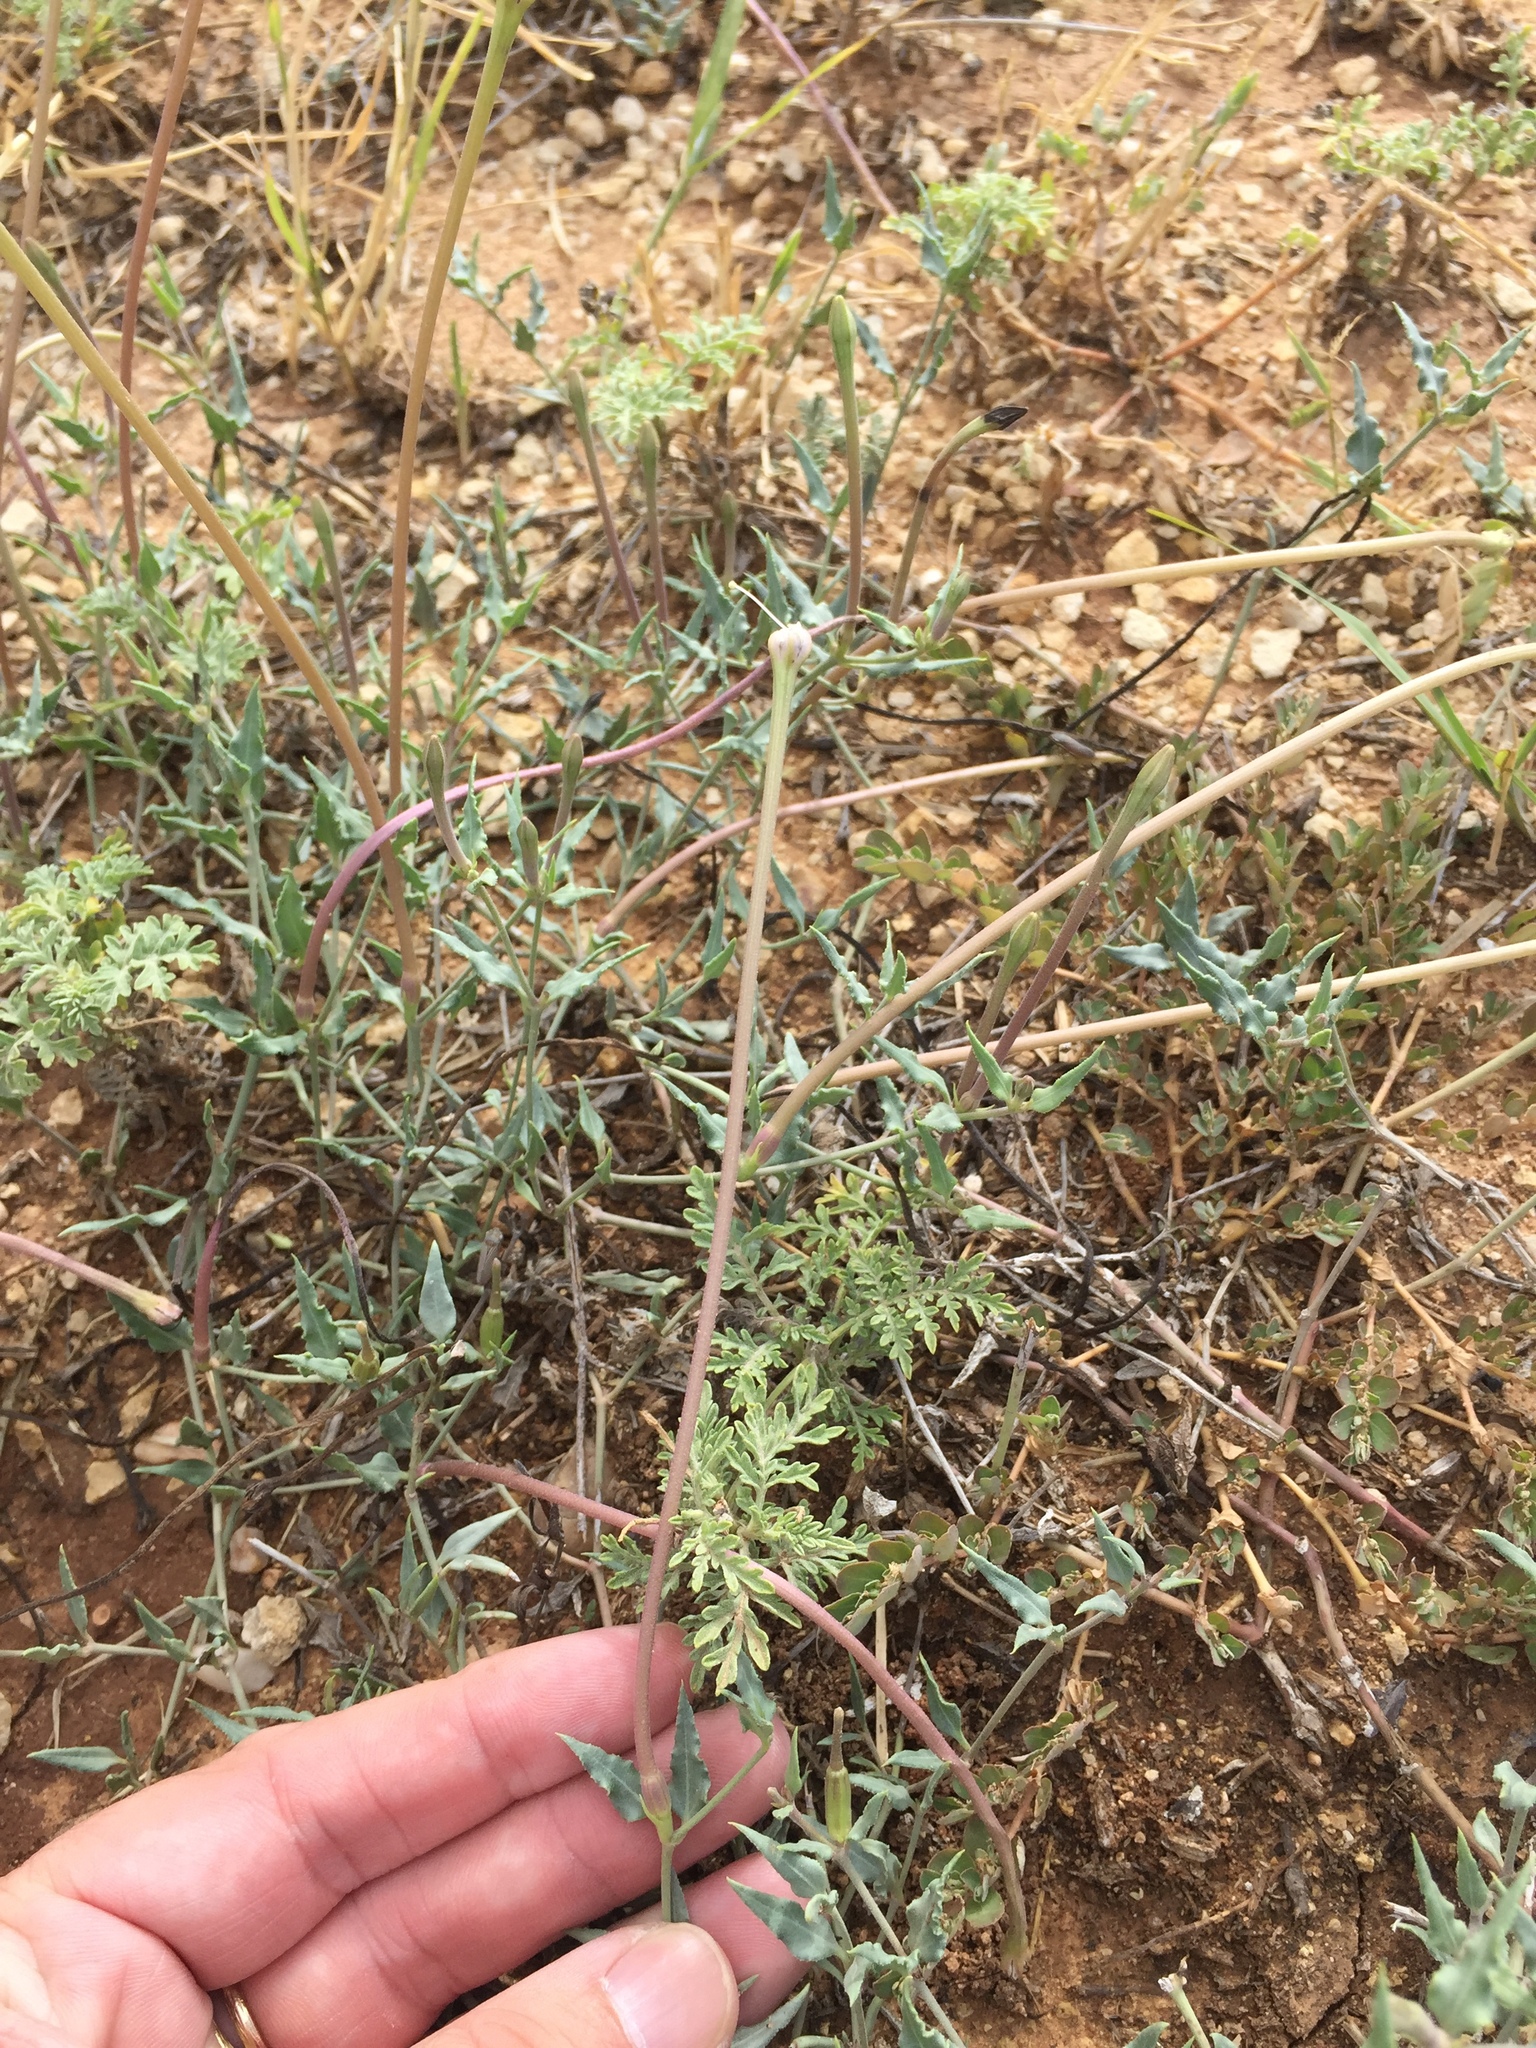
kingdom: Plantae
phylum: Tracheophyta
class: Magnoliopsida
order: Caryophyllales
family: Nyctaginaceae
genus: Acleisanthes
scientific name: Acleisanthes longiflora
